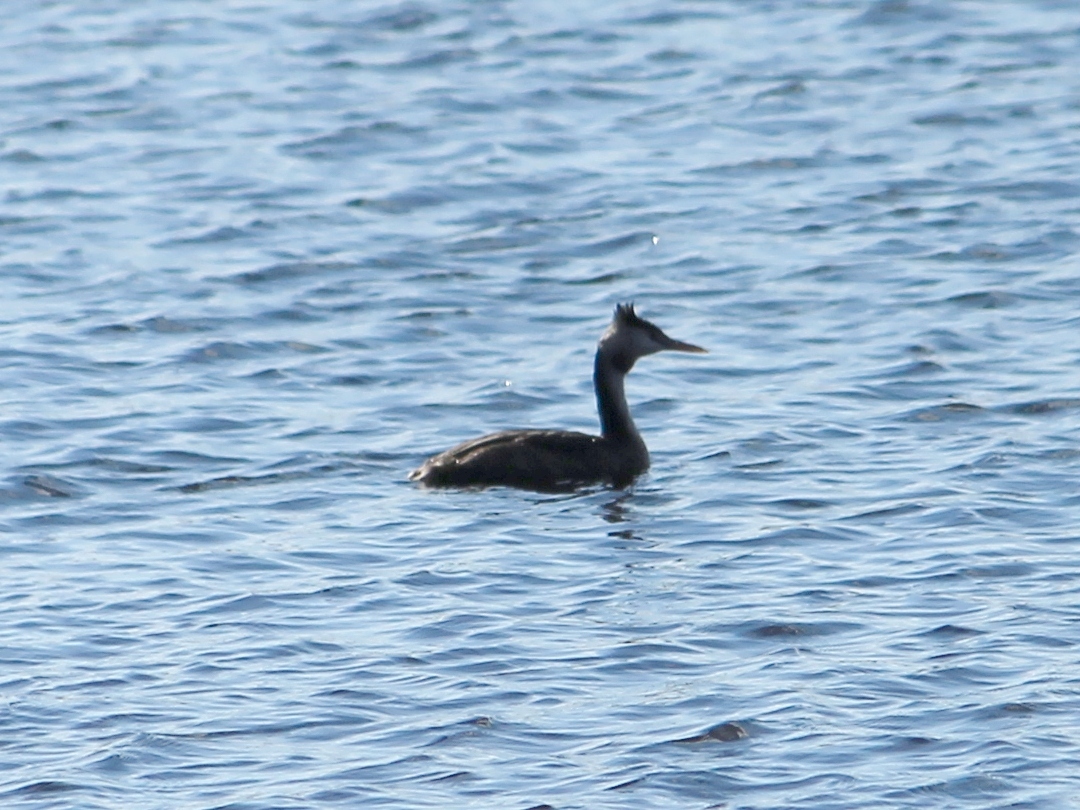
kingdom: Animalia
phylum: Chordata
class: Aves
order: Podicipediformes
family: Podicipedidae
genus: Podiceps
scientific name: Podiceps cristatus
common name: Great crested grebe
